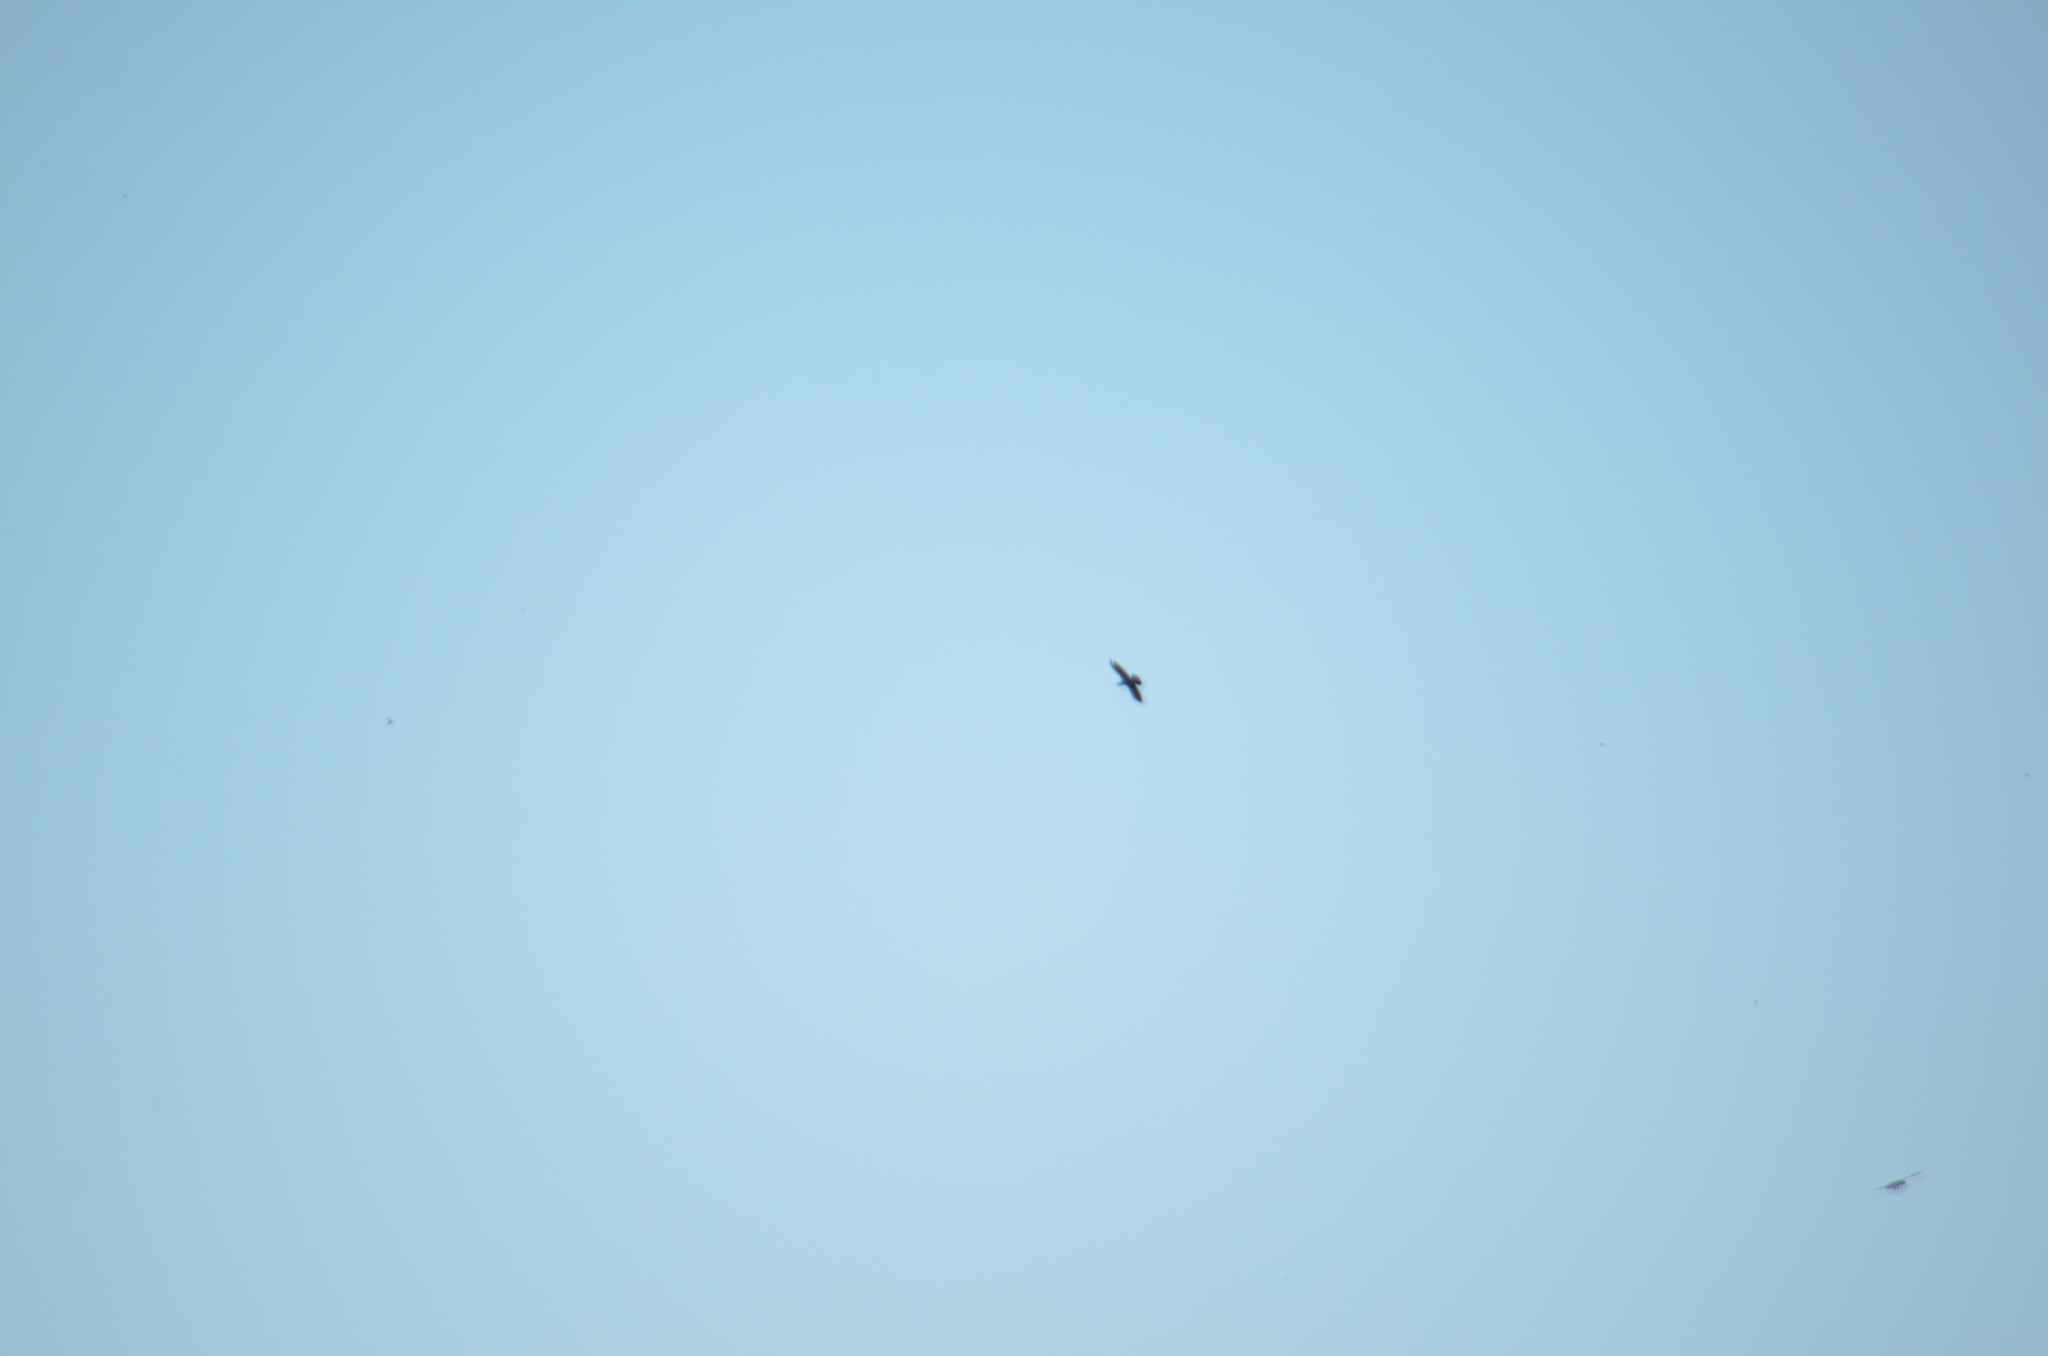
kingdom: Animalia
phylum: Chordata
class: Aves
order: Passeriformes
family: Corvidae
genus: Corvus
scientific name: Corvus corax
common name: Common raven
